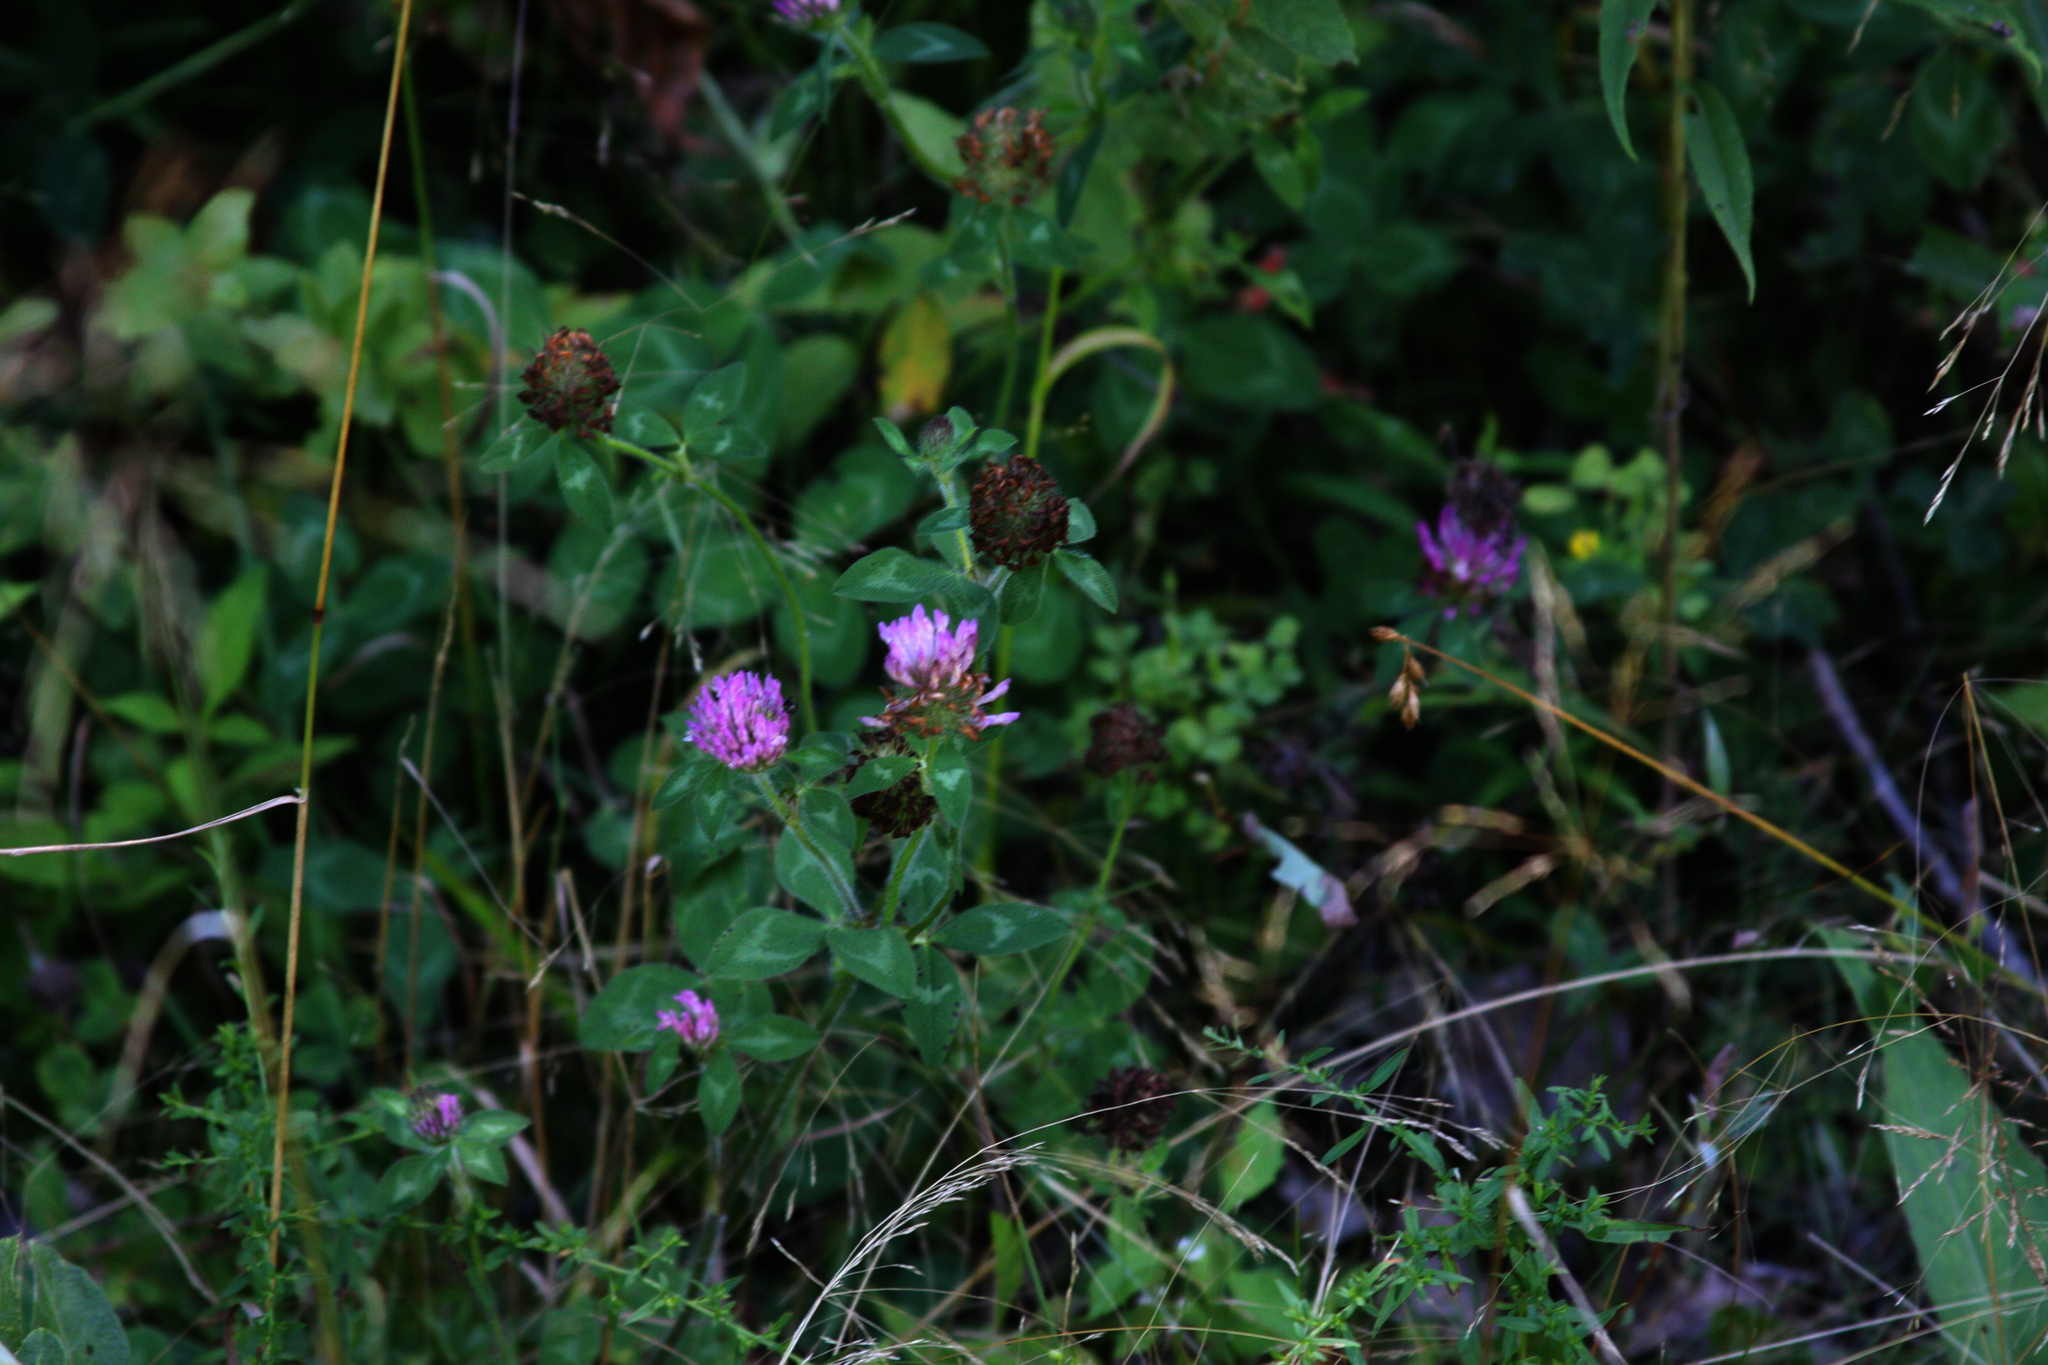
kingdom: Plantae
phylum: Tracheophyta
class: Magnoliopsida
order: Fabales
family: Fabaceae
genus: Trifolium
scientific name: Trifolium pratense
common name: Red clover
